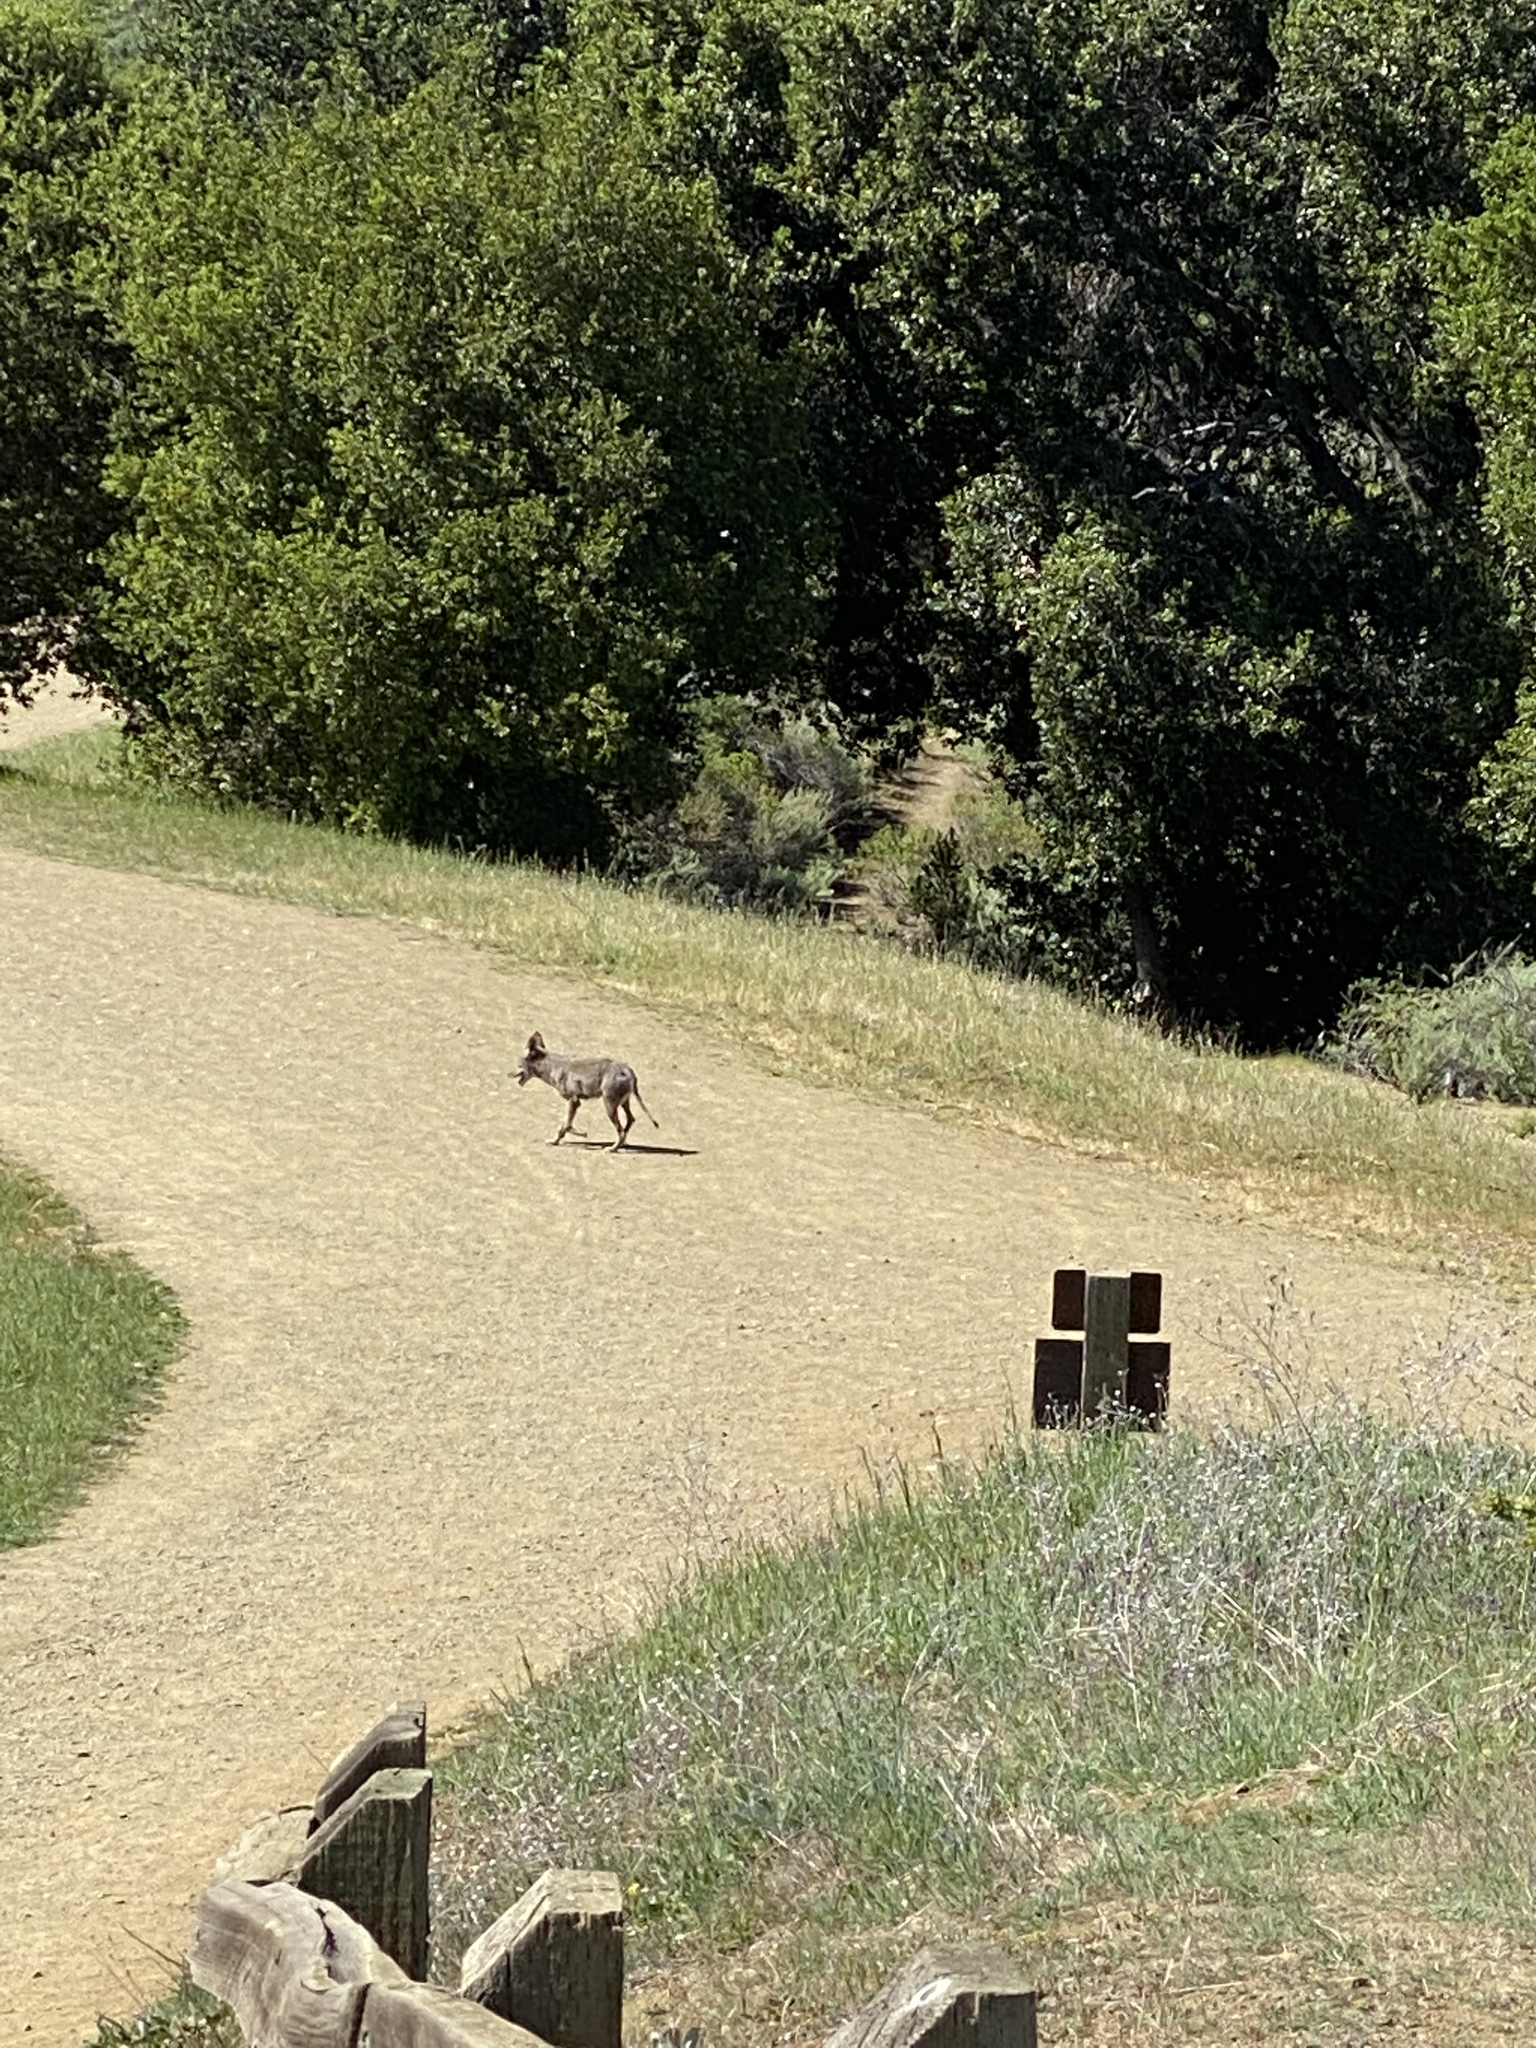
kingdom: Animalia
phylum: Chordata
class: Mammalia
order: Carnivora
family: Canidae
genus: Canis
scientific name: Canis latrans
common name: Coyote
